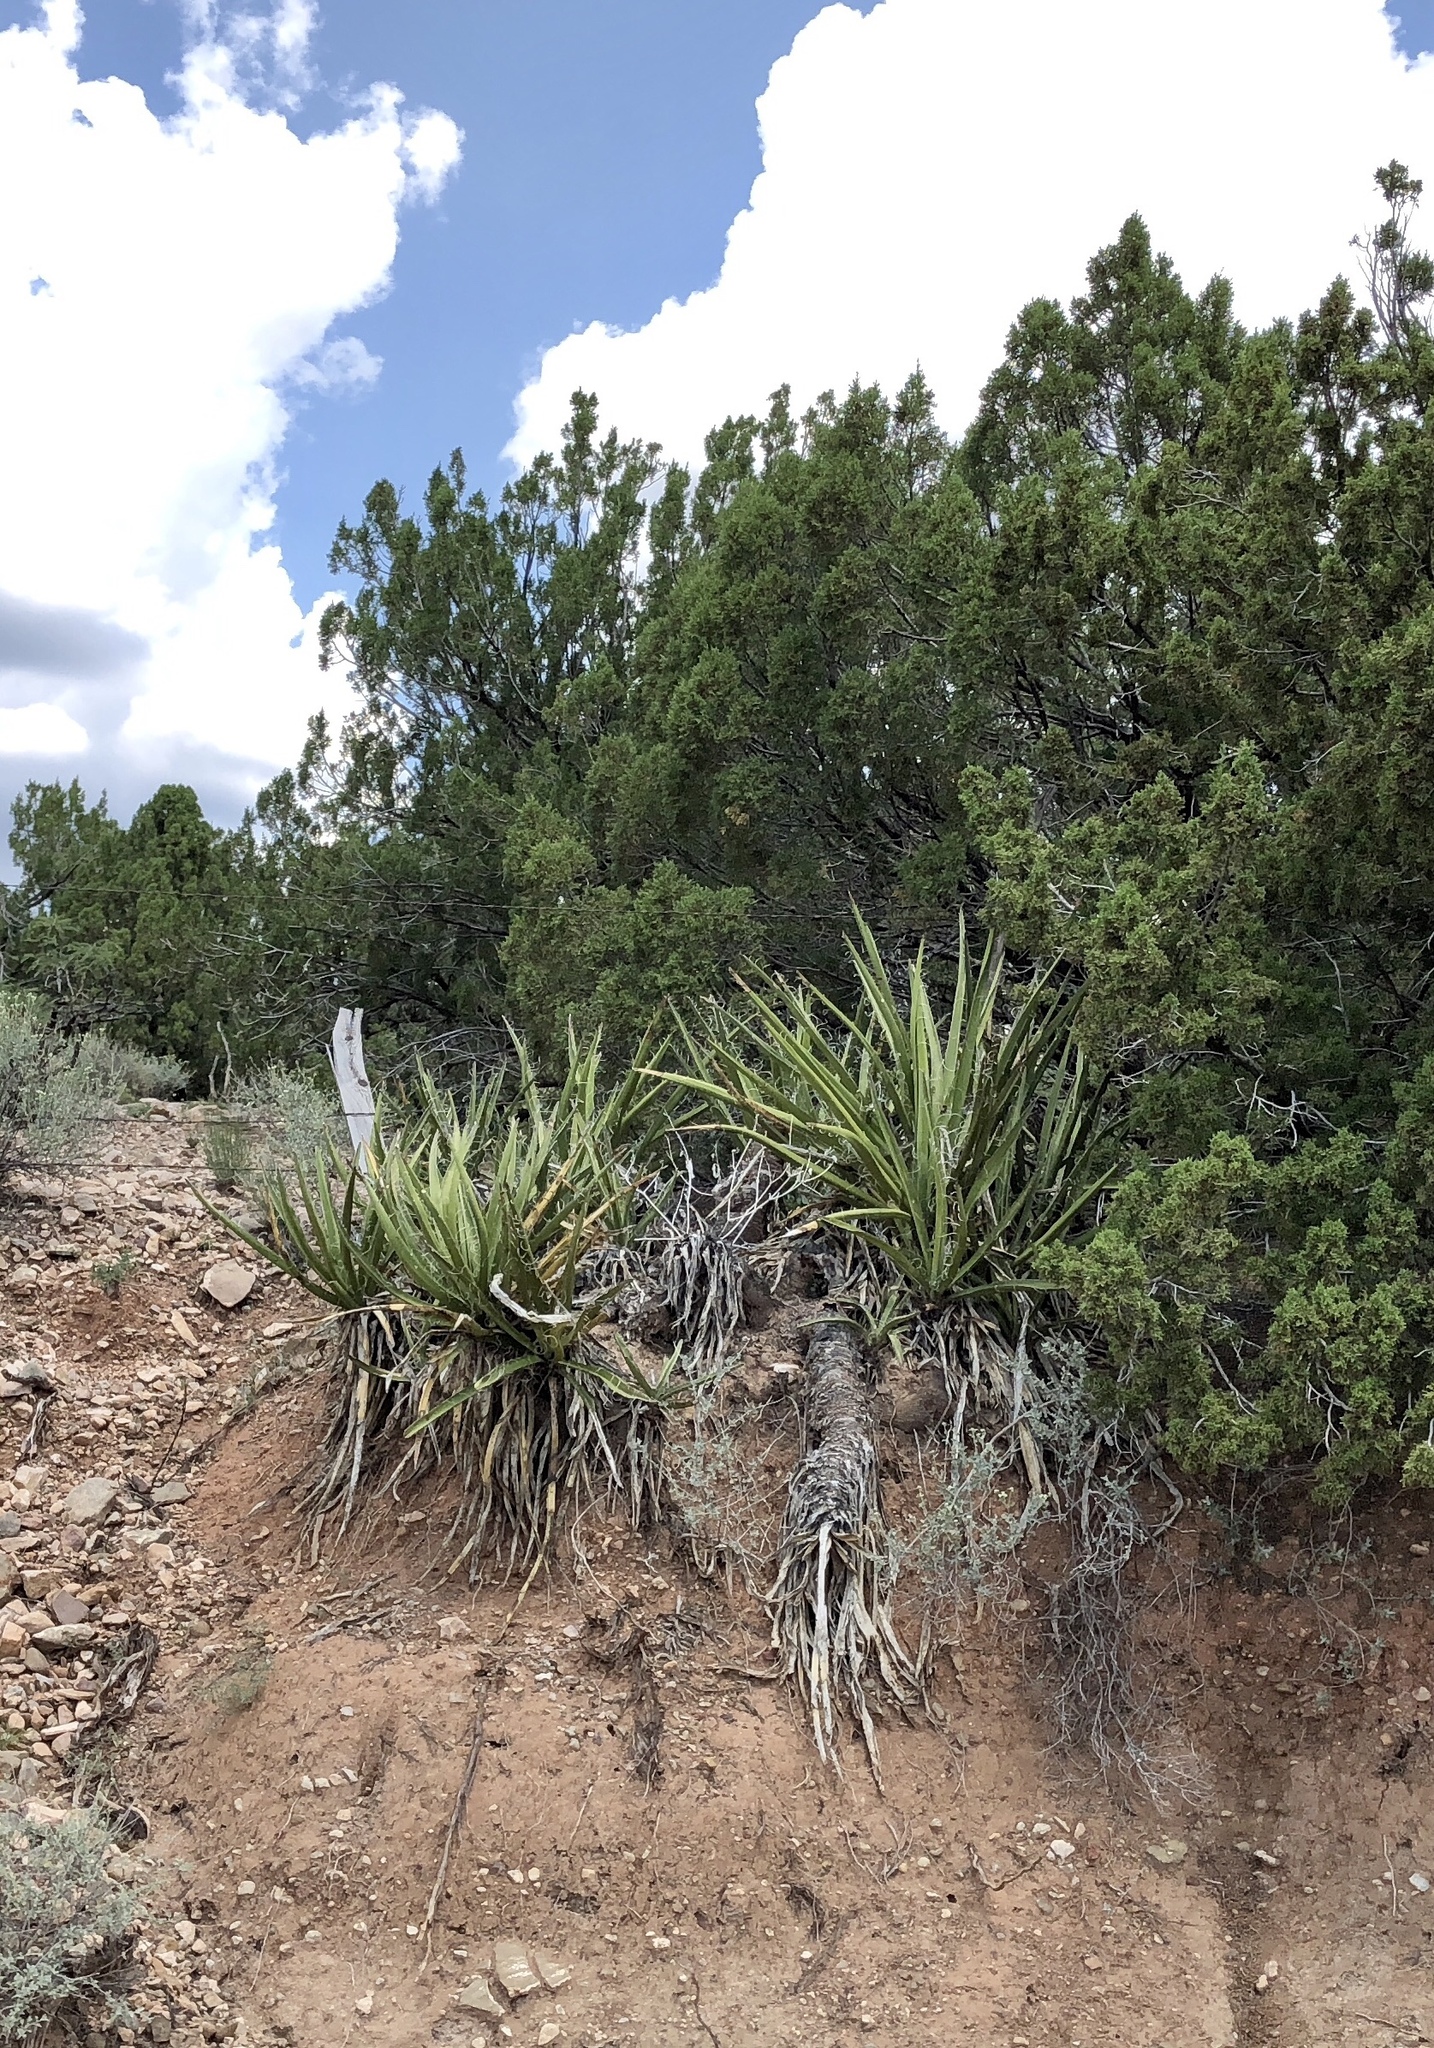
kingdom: Plantae
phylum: Tracheophyta
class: Liliopsida
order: Asparagales
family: Asparagaceae
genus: Yucca
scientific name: Yucca baccata
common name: Banana yucca
